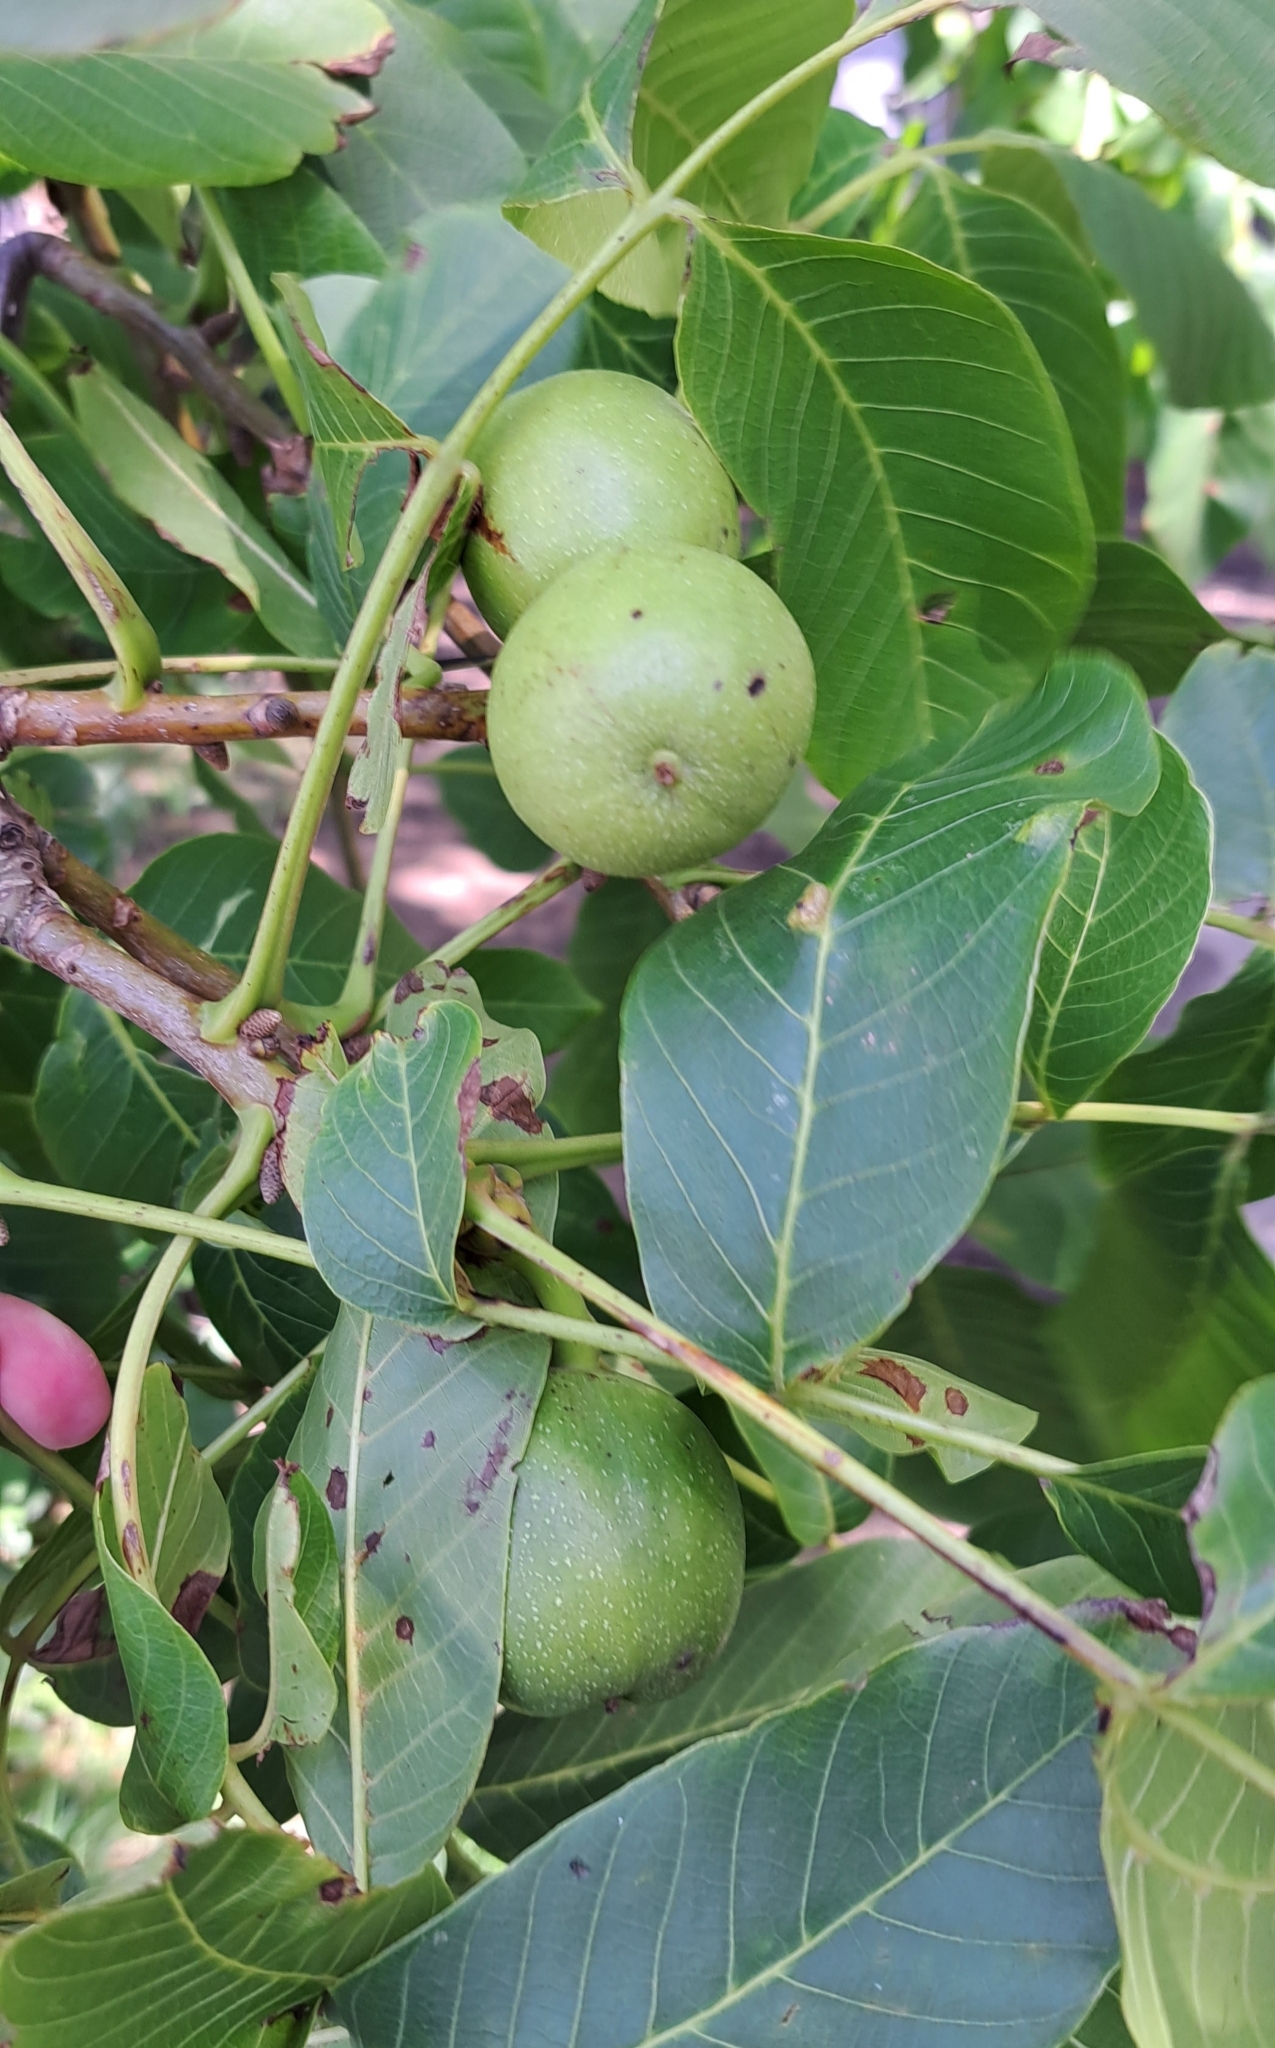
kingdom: Plantae
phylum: Tracheophyta
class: Magnoliopsida
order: Fagales
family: Juglandaceae
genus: Juglans
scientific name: Juglans regia
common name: Walnut
